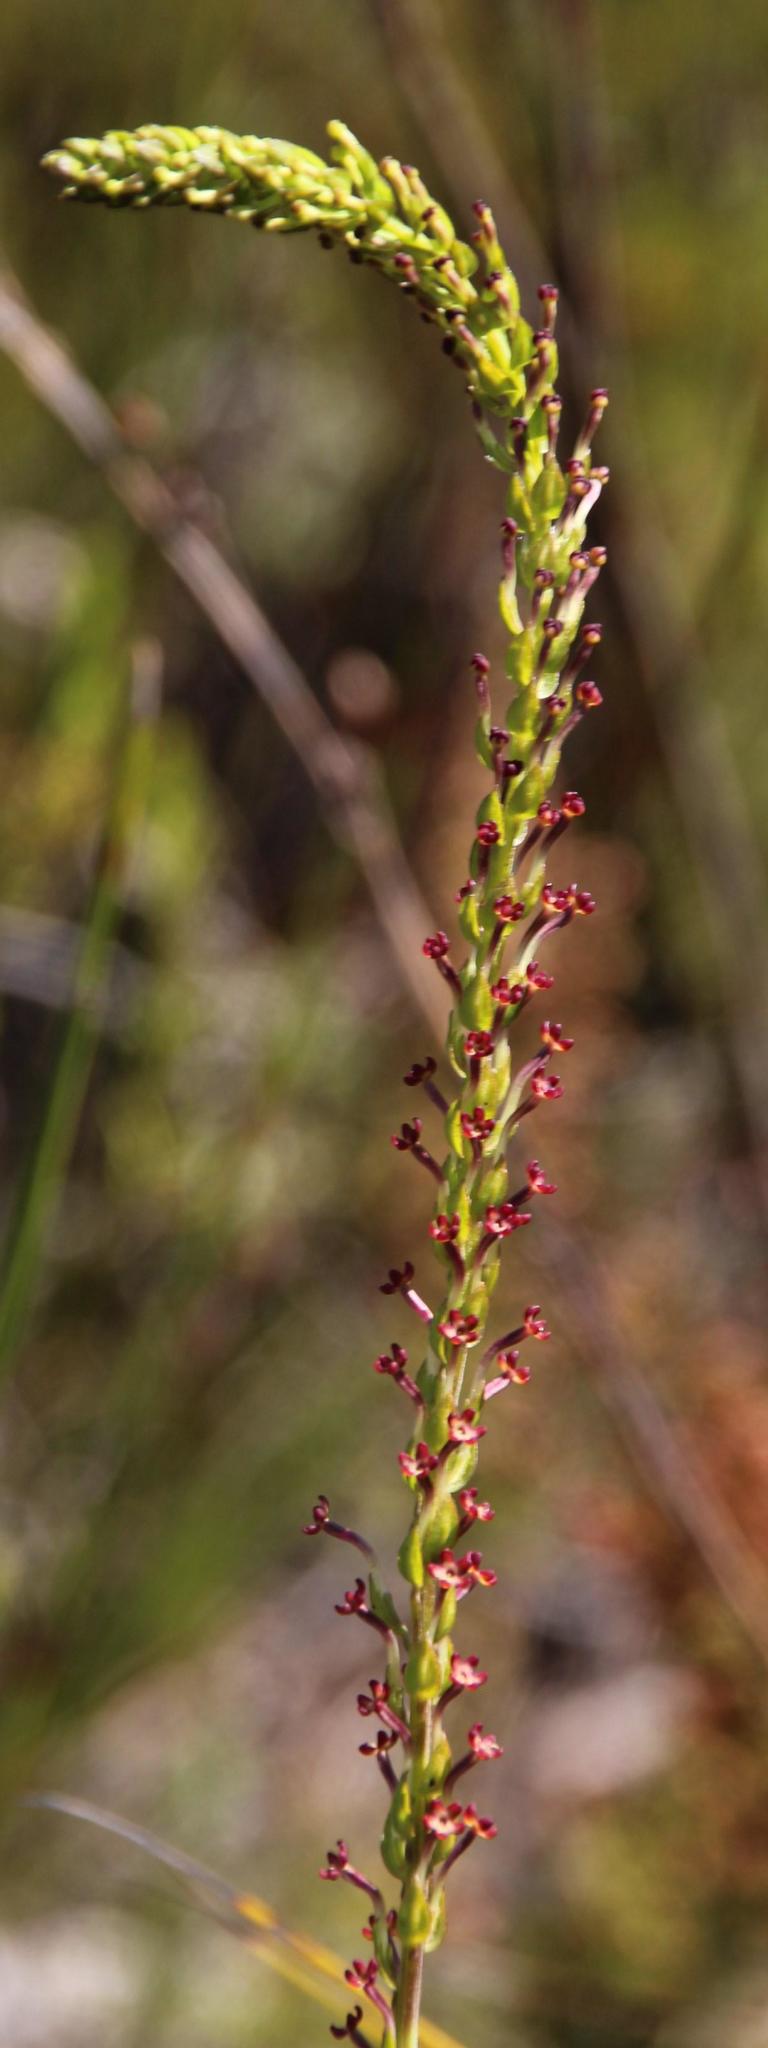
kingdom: Plantae
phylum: Tracheophyta
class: Magnoliopsida
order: Lamiales
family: Scrophulariaceae
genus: Microdon
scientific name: Microdon dubius
